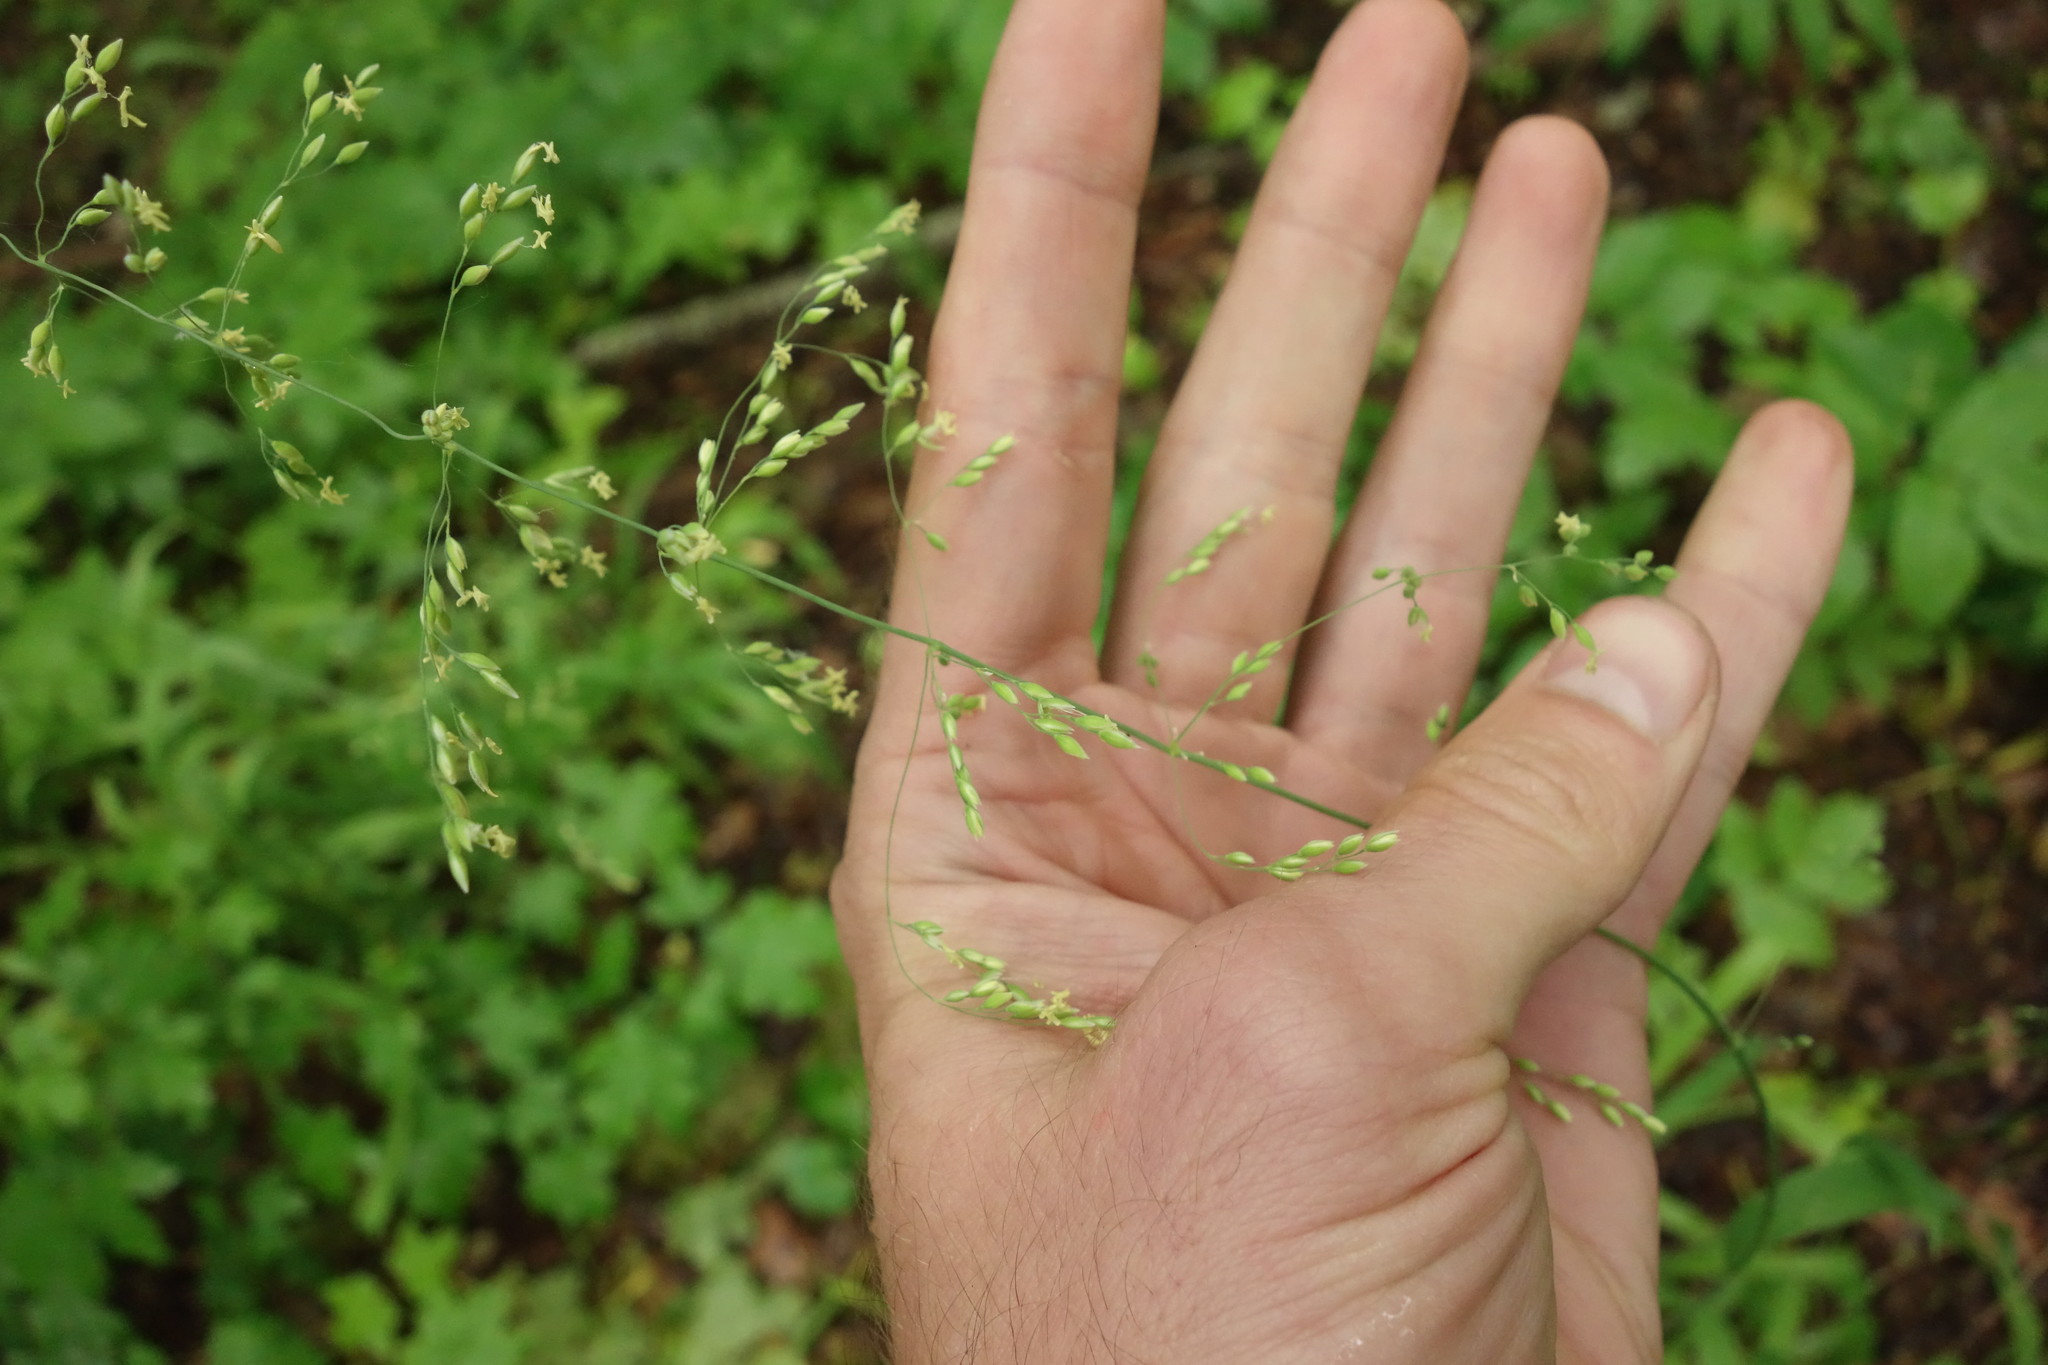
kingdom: Plantae
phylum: Tracheophyta
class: Liliopsida
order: Poales
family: Poaceae
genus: Milium
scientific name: Milium effusum
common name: Wood millet
